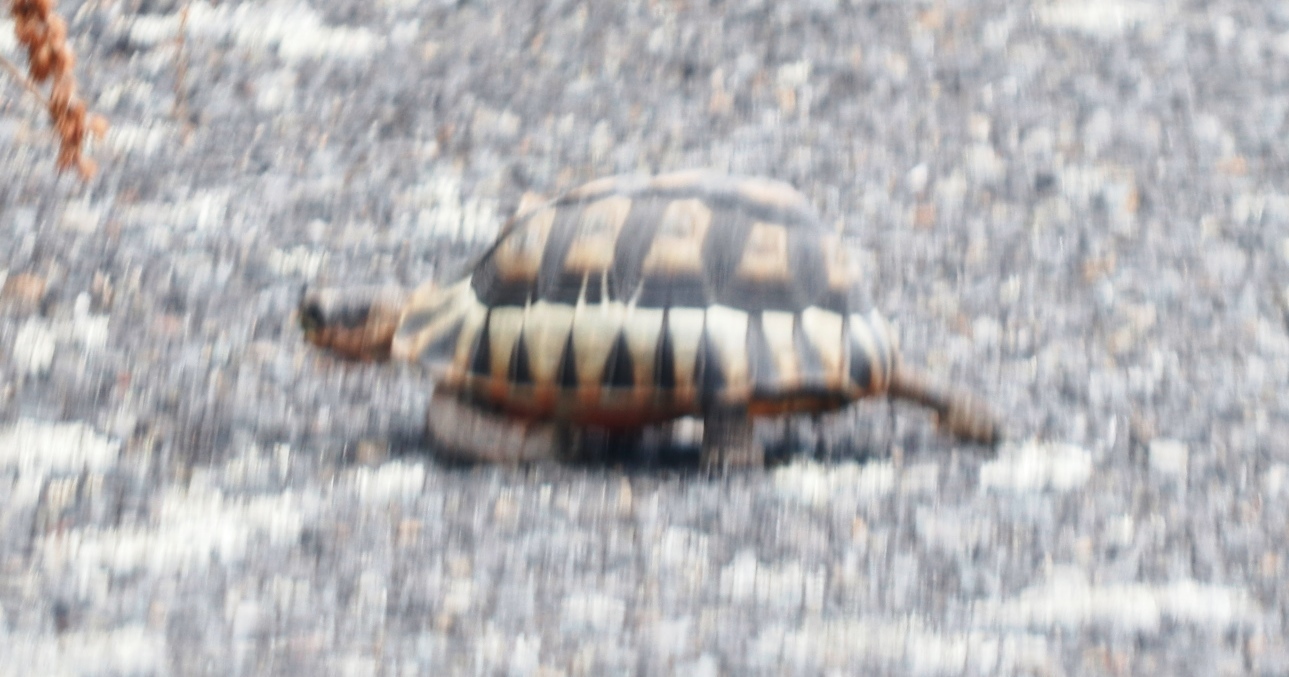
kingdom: Animalia
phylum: Chordata
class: Testudines
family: Testudinidae
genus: Chersina
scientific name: Chersina angulata
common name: South african bowsprit tortoise
